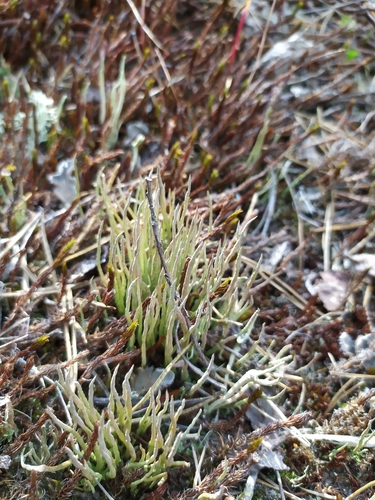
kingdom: Fungi
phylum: Ascomycota
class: Lecanoromycetes
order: Lecanorales
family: Cladoniaceae
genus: Cladonia
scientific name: Cladonia
